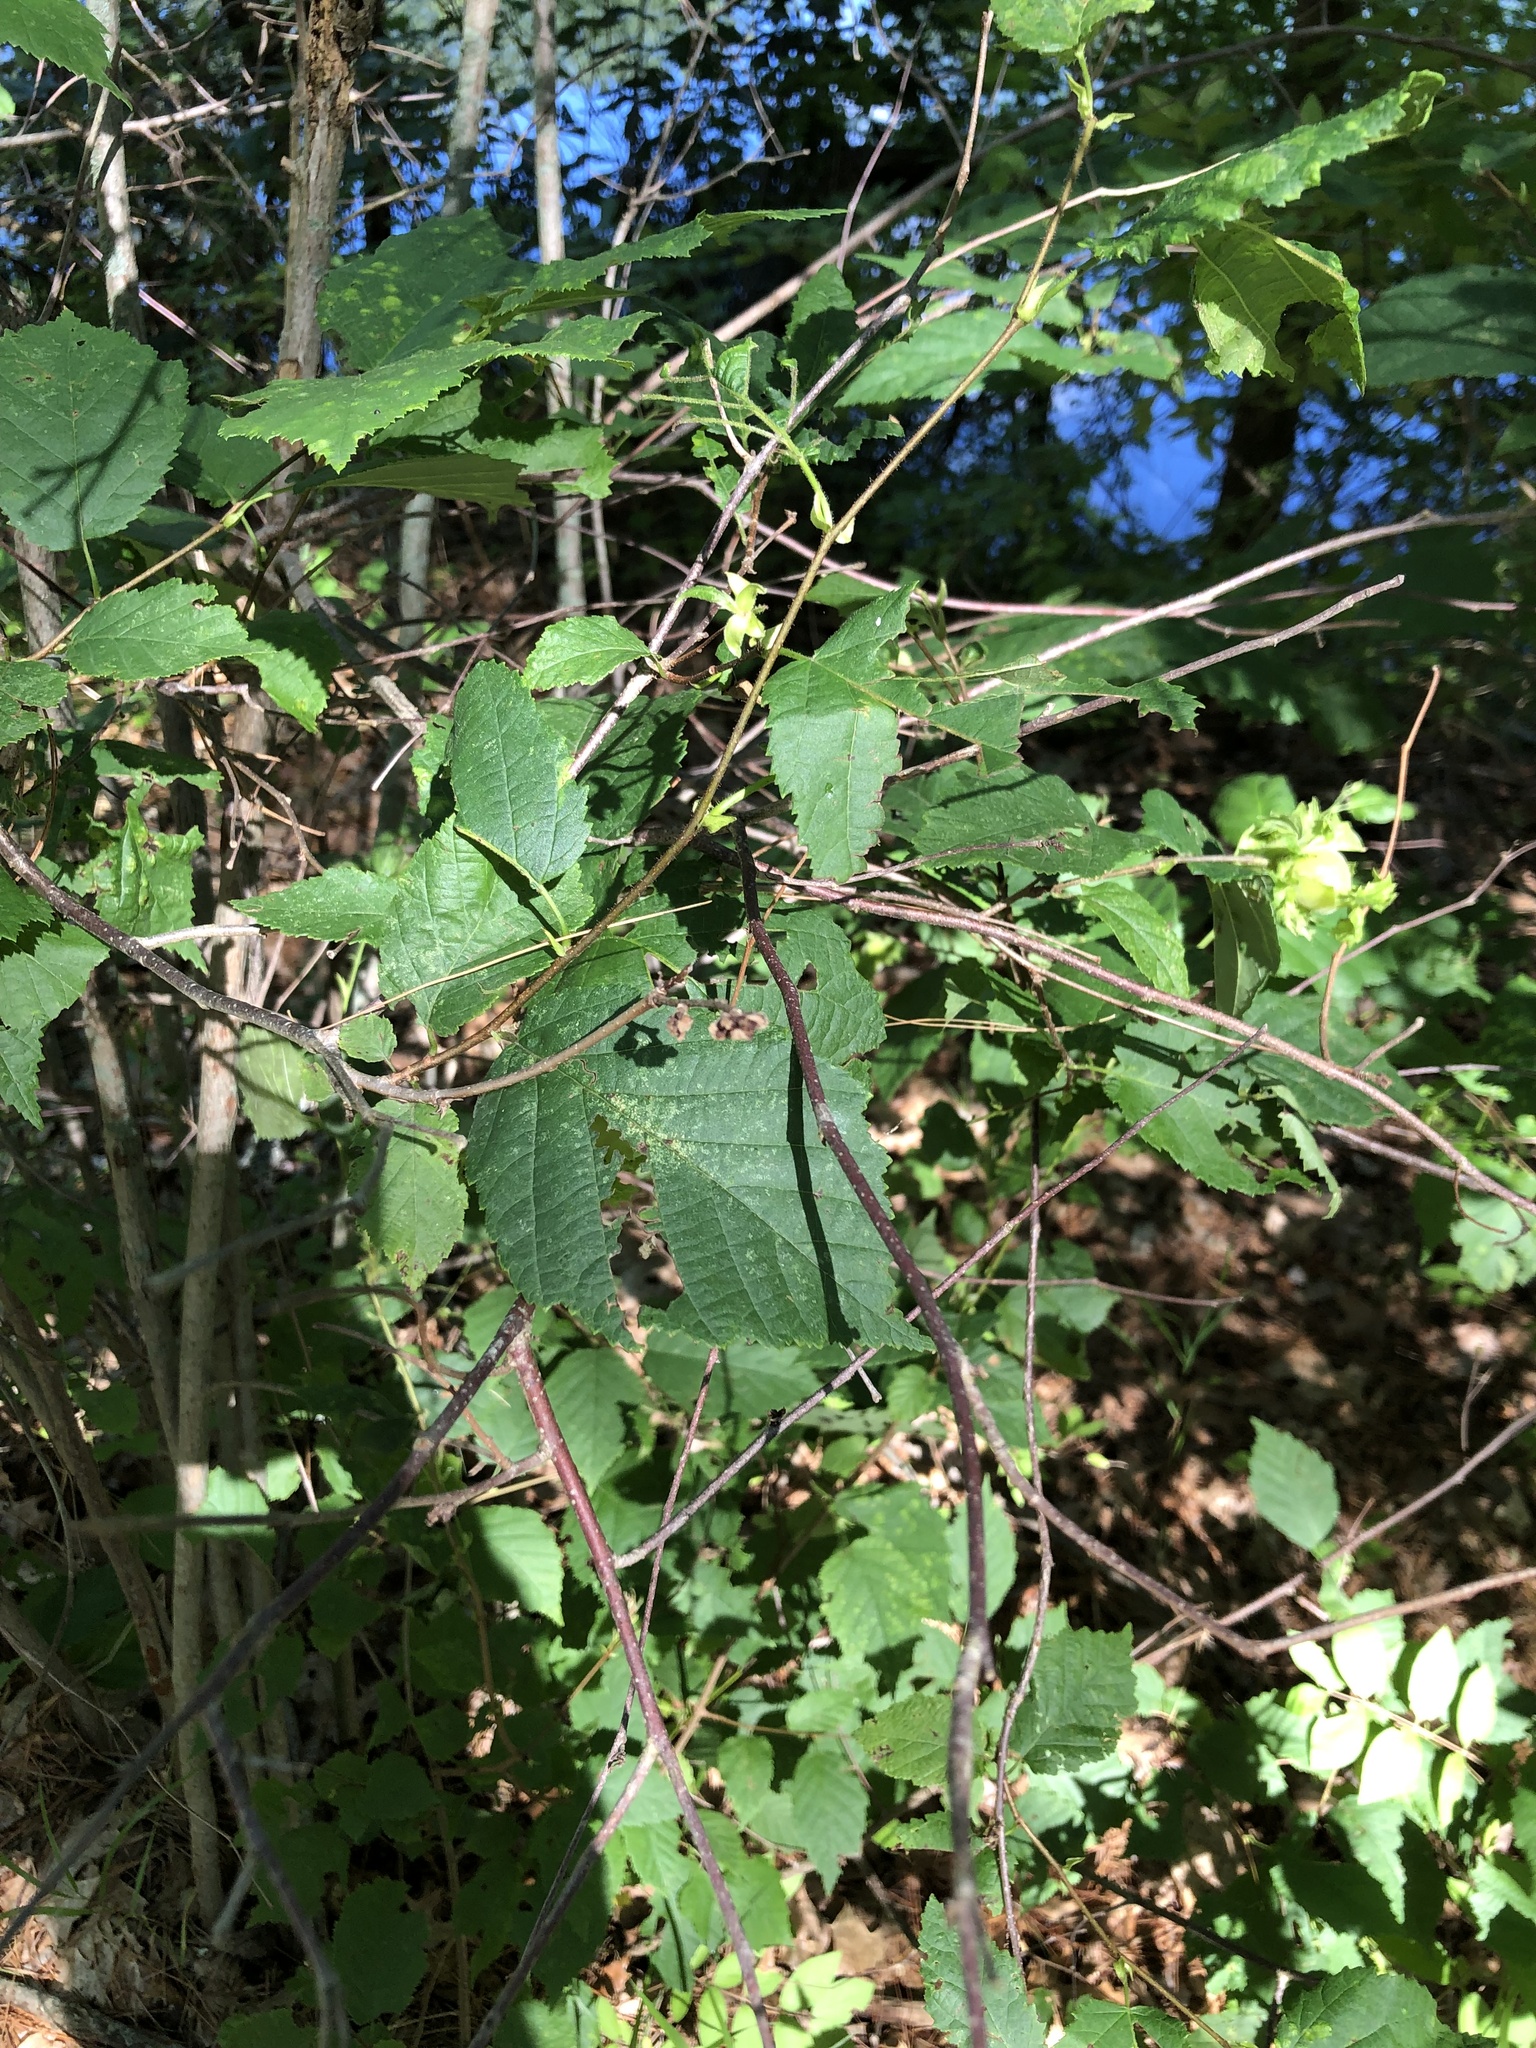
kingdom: Plantae
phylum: Tracheophyta
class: Magnoliopsida
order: Fagales
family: Betulaceae
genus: Corylus
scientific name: Corylus americana
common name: American hazel
